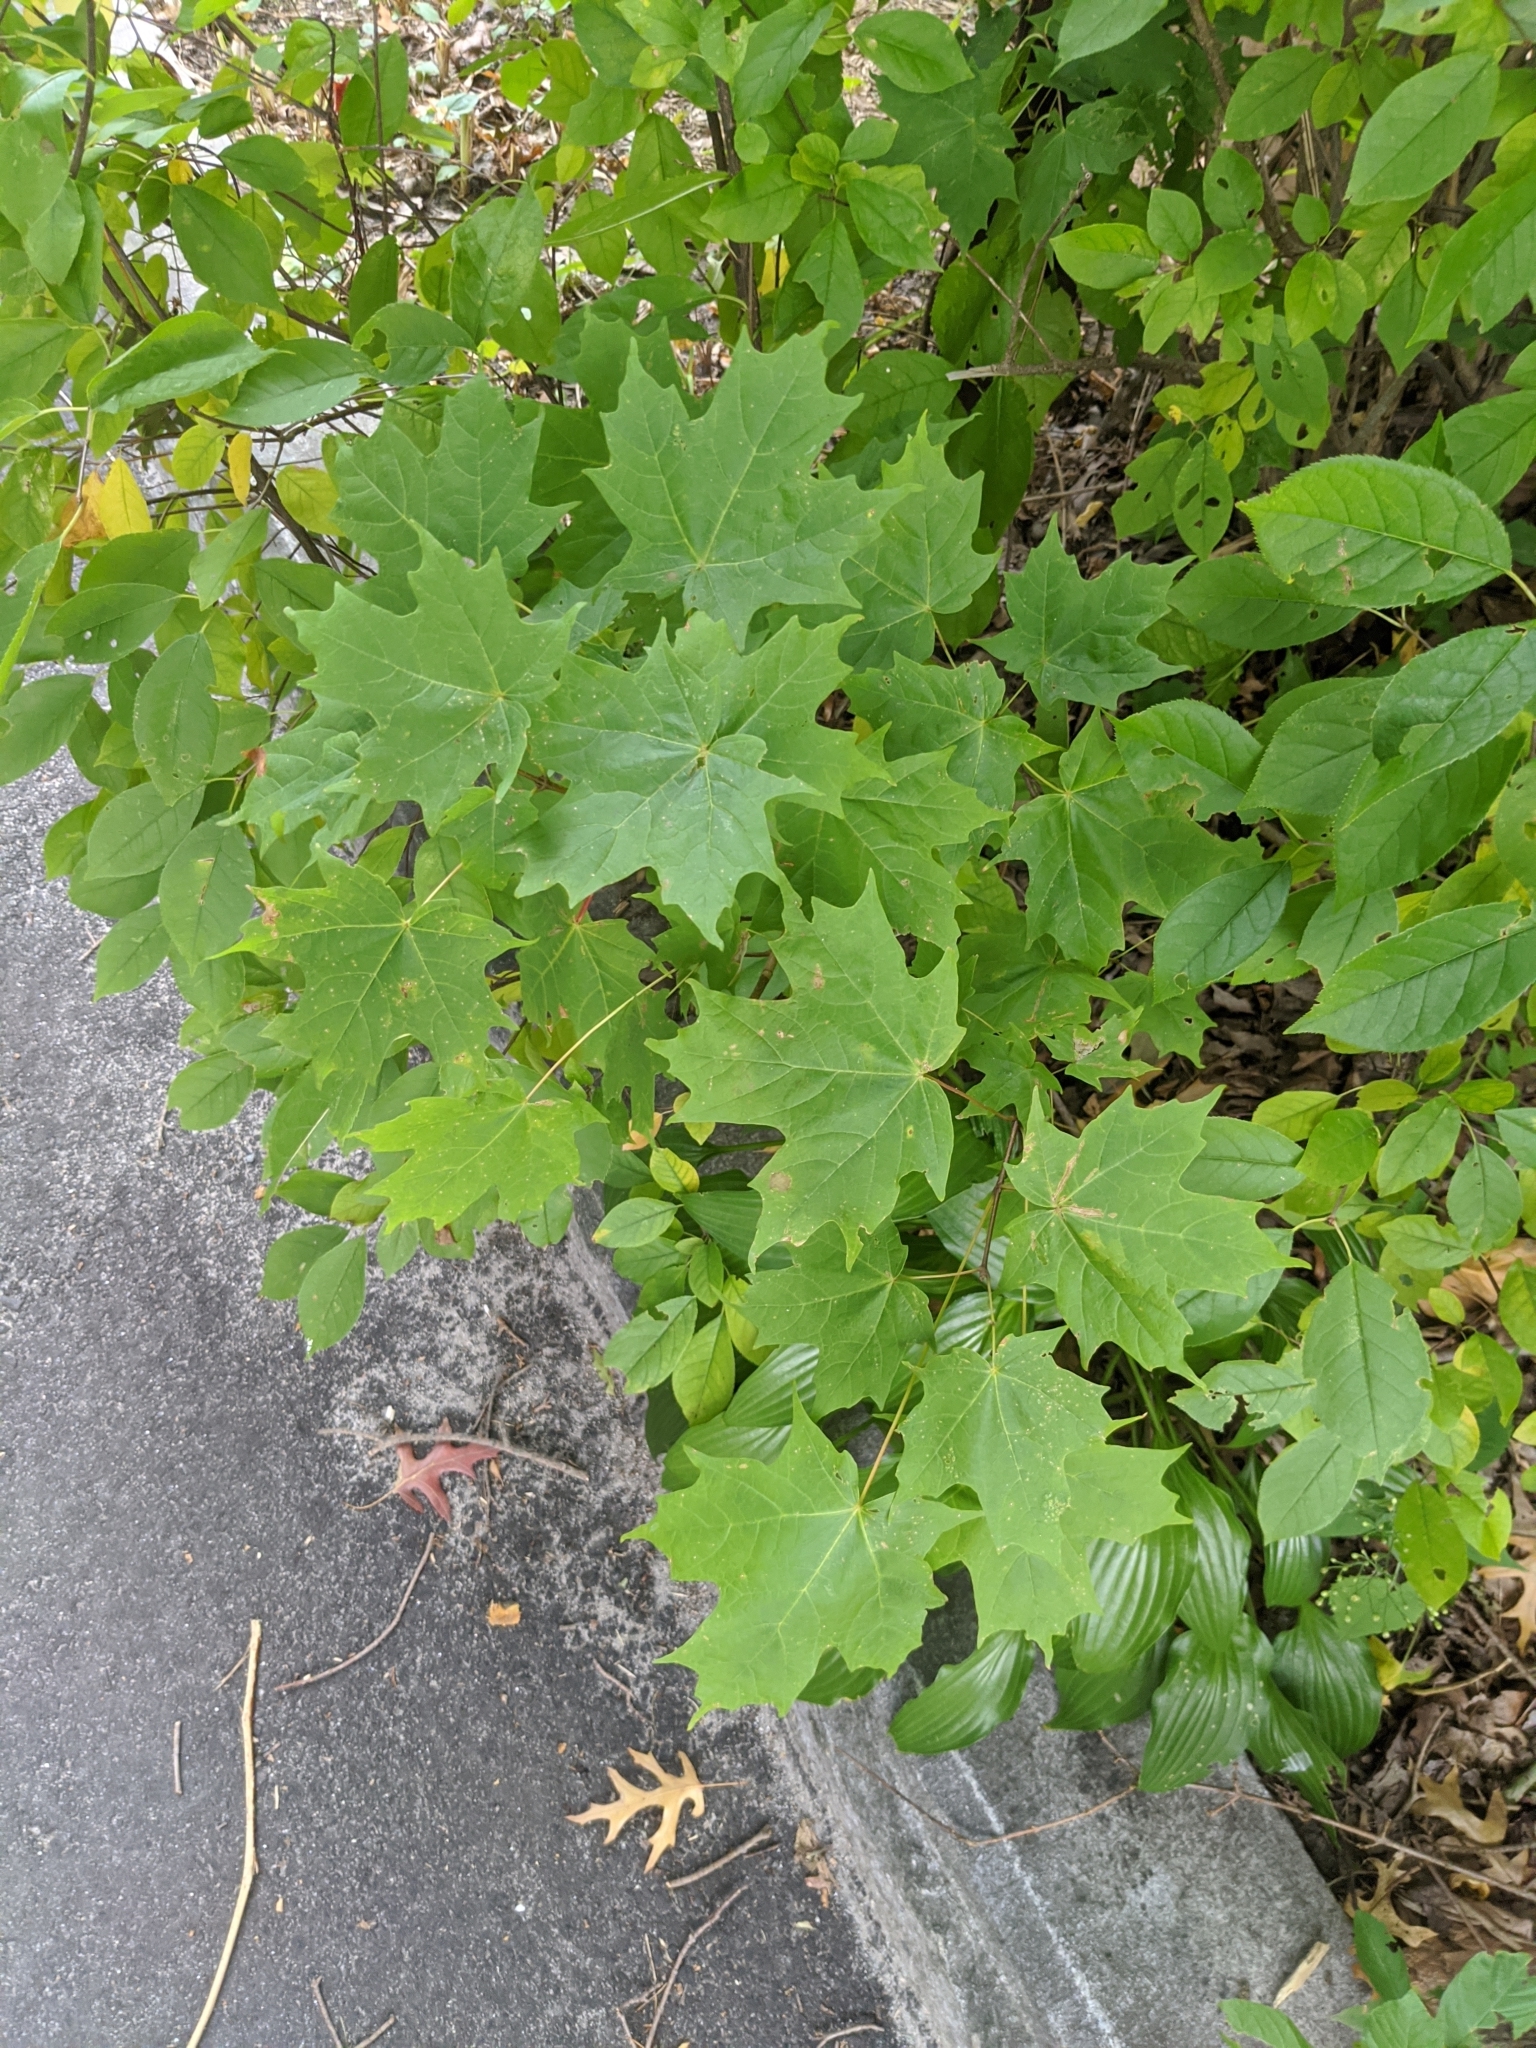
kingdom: Plantae
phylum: Tracheophyta
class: Magnoliopsida
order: Sapindales
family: Sapindaceae
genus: Acer
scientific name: Acer saccharum
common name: Sugar maple
